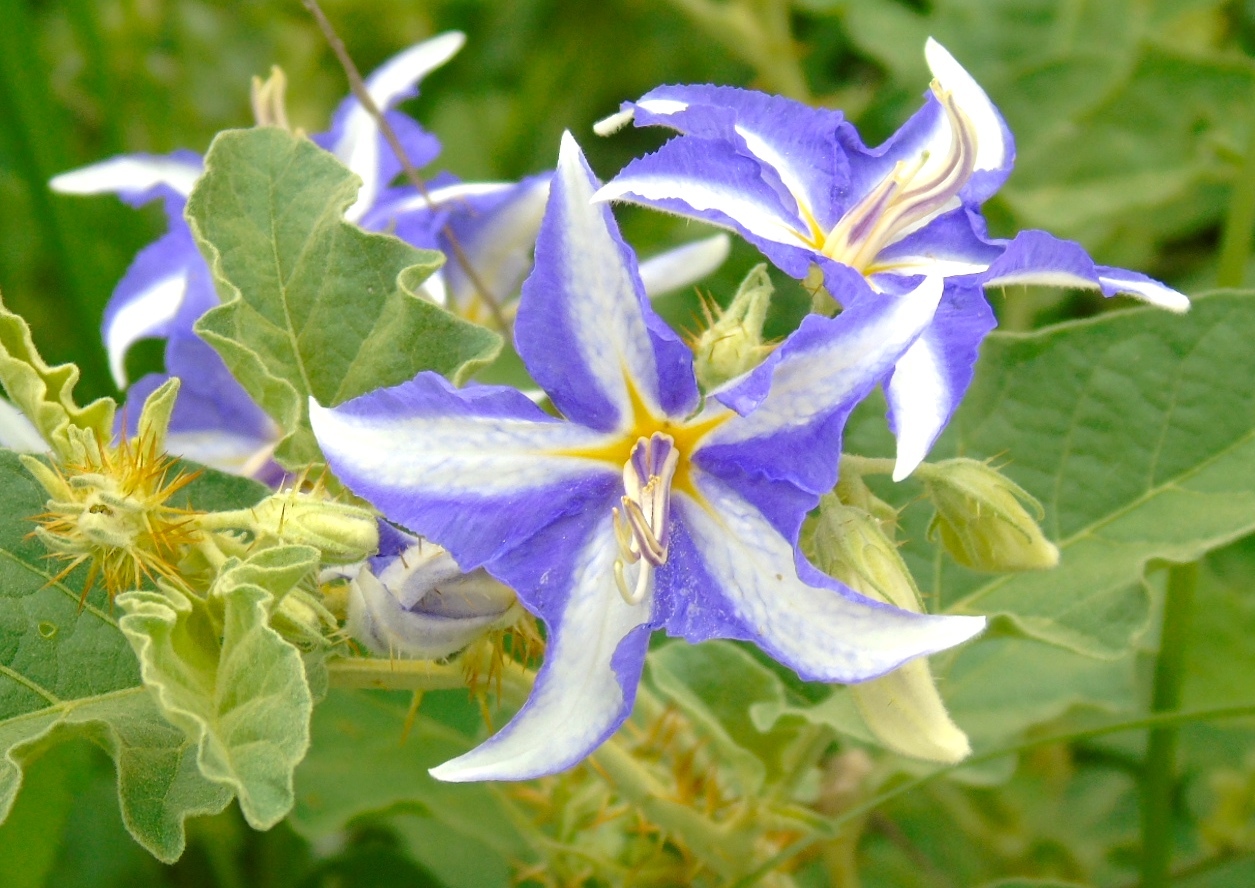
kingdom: Plantae
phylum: Tracheophyta
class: Magnoliopsida
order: Solanales
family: Solanaceae
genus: Solanum
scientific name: Solanum houstonii
